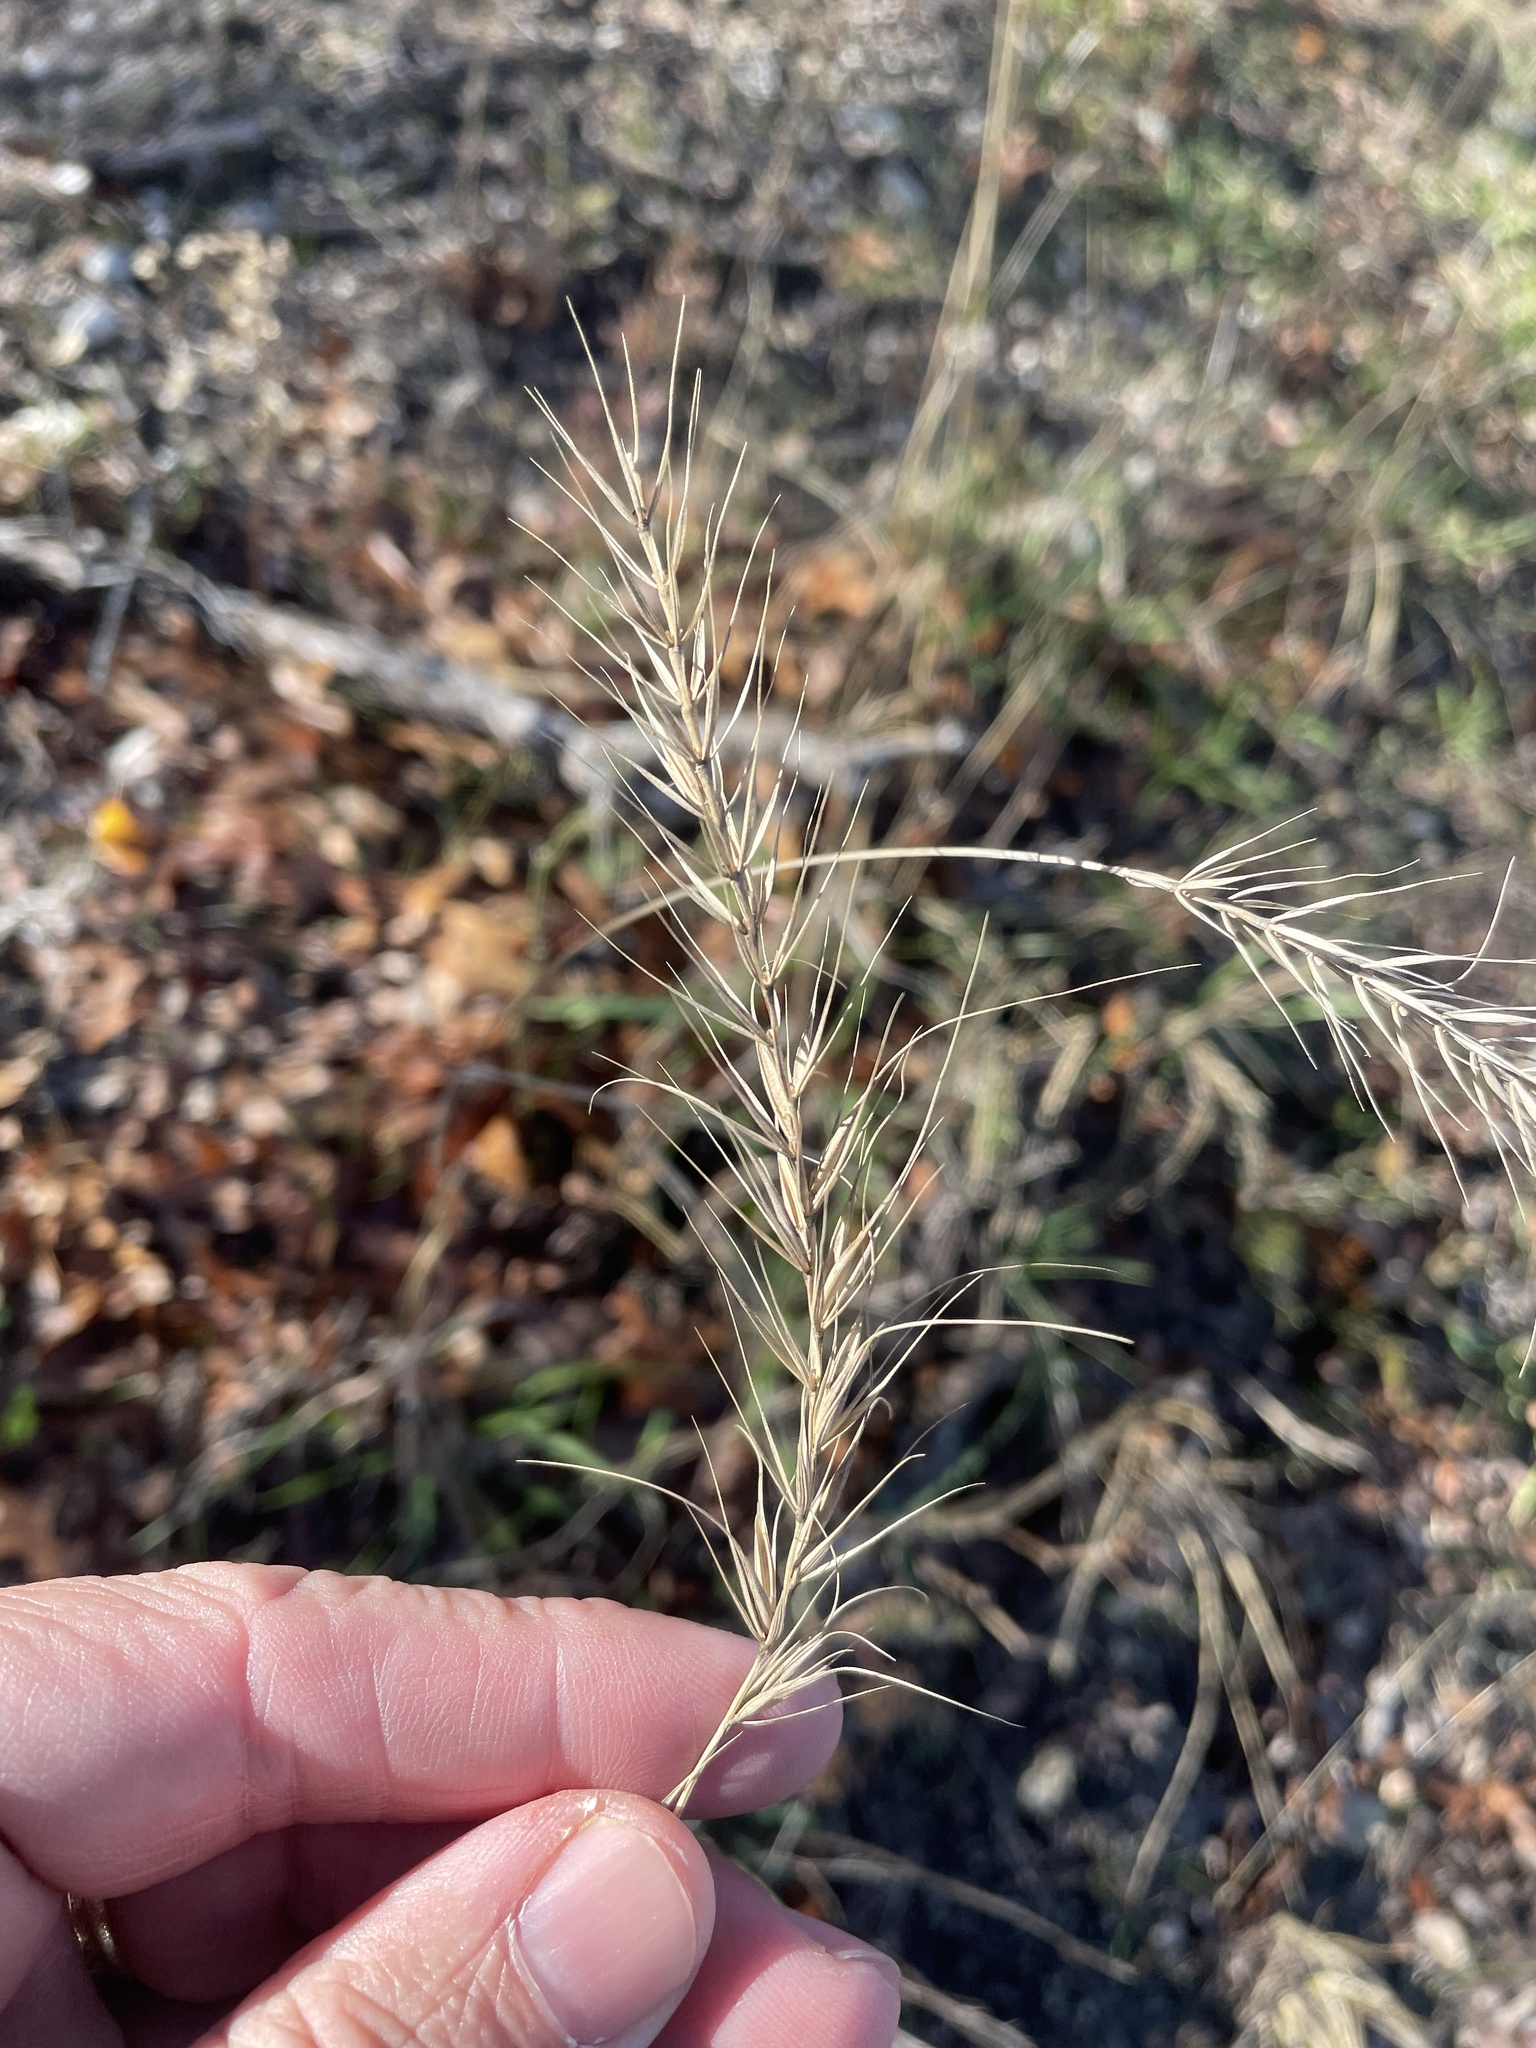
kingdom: Plantae
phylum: Tracheophyta
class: Liliopsida
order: Poales
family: Poaceae
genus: Elymus
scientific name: Elymus canadensis
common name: Canada wild rye
